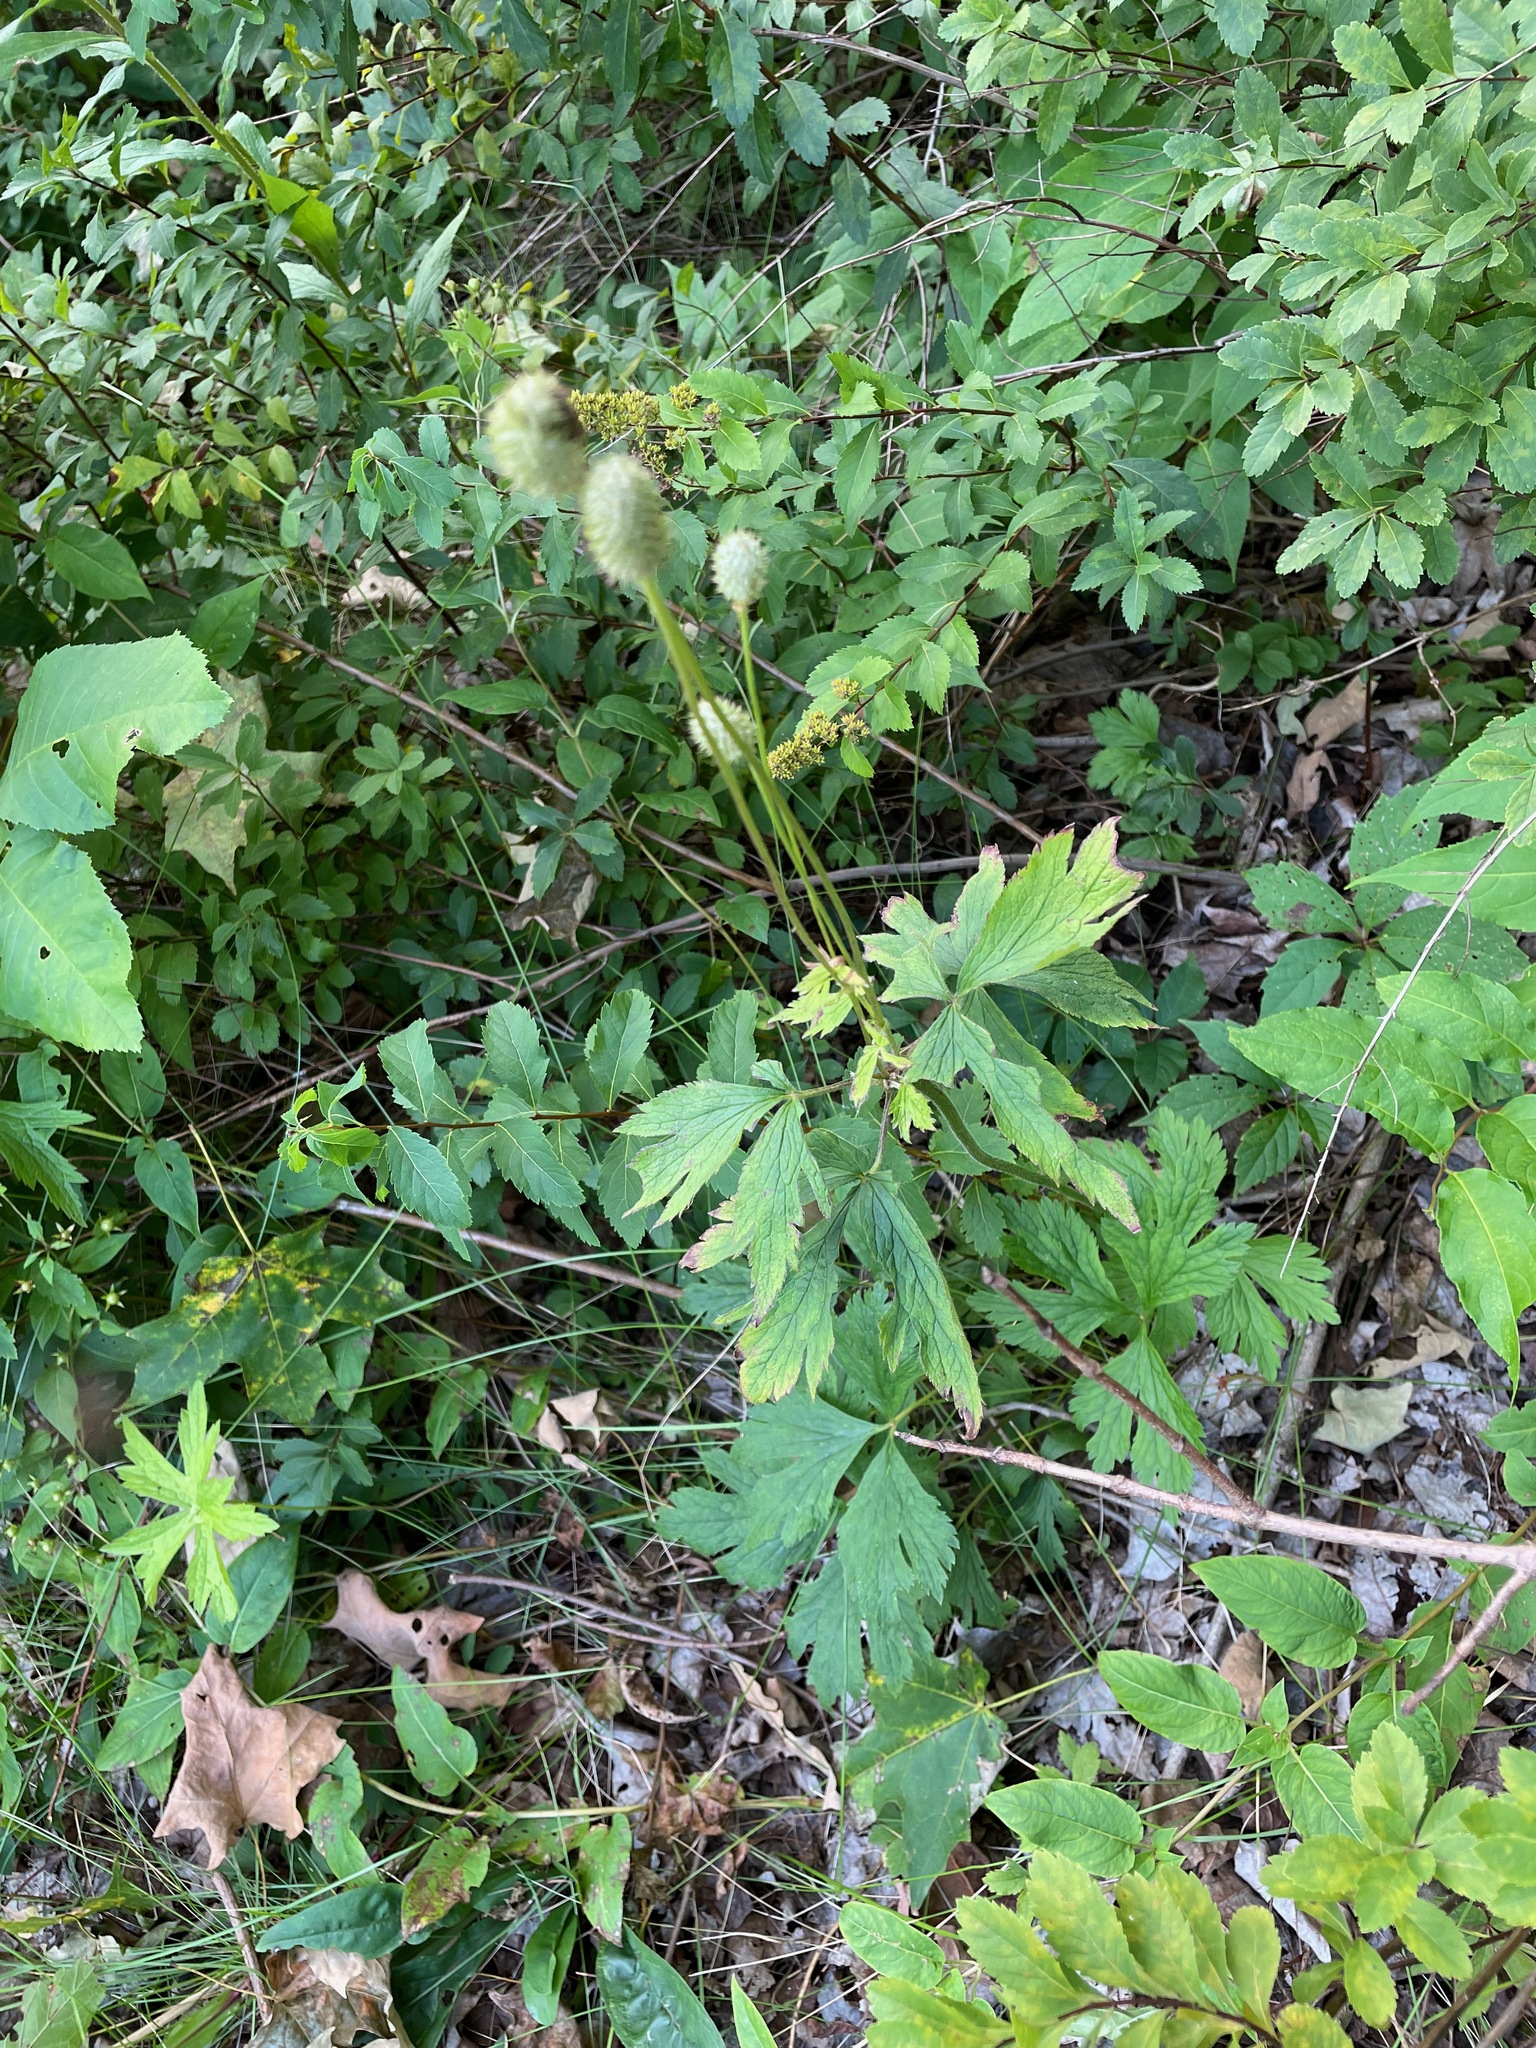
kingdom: Plantae
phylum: Tracheophyta
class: Magnoliopsida
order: Ranunculales
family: Ranunculaceae
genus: Anemone
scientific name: Anemone virginiana
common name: Tall anemone
